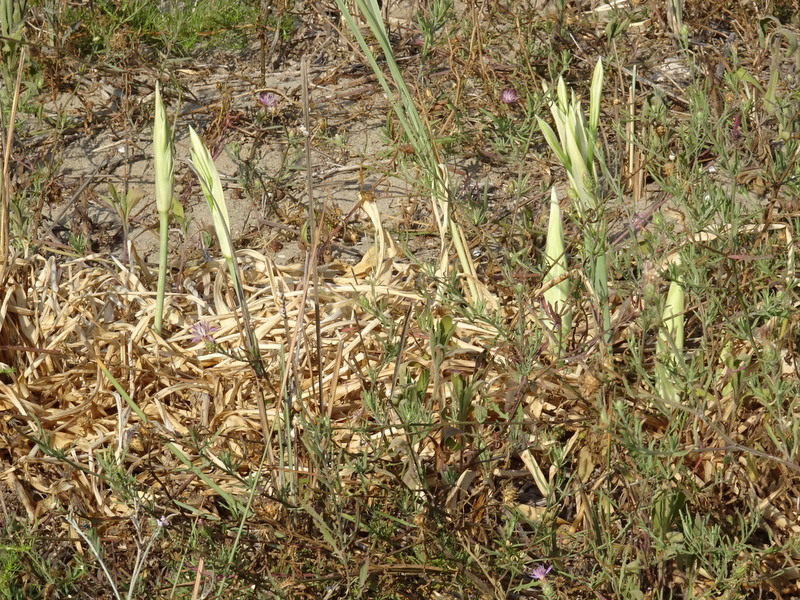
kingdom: Plantae
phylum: Tracheophyta
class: Liliopsida
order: Asparagales
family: Amaryllidaceae
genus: Pancratium
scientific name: Pancratium maritimum
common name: Sea-daffodil
